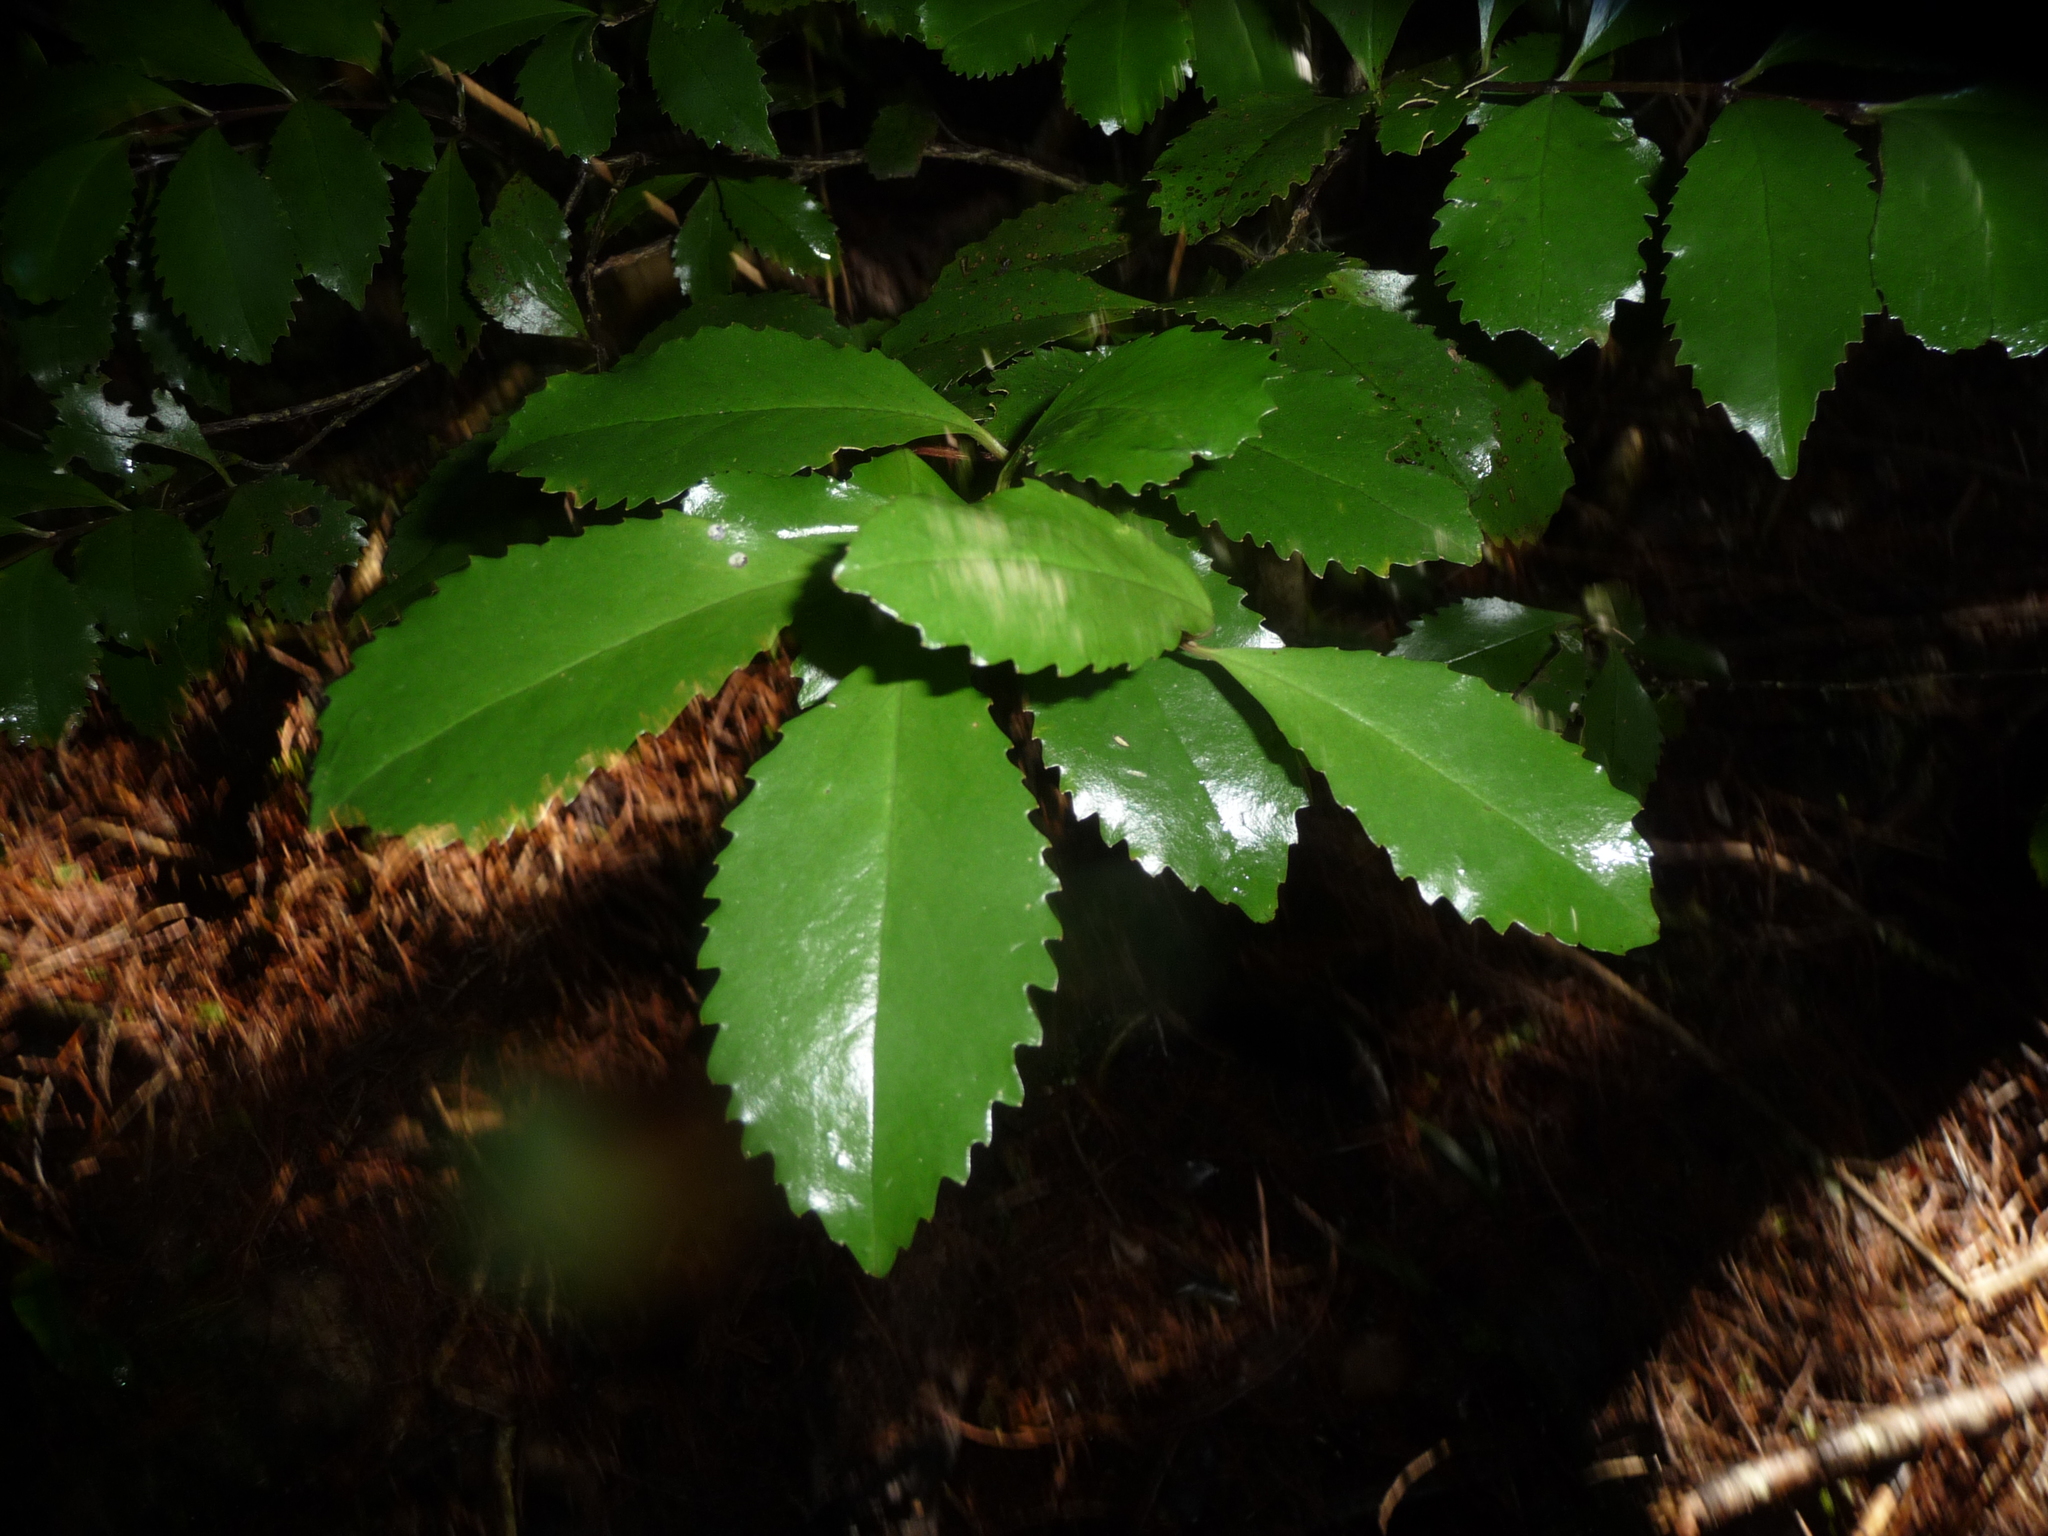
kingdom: Plantae
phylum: Tracheophyta
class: Magnoliopsida
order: Laurales
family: Atherospermataceae
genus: Laurelia
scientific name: Laurelia novae-zelandiae
